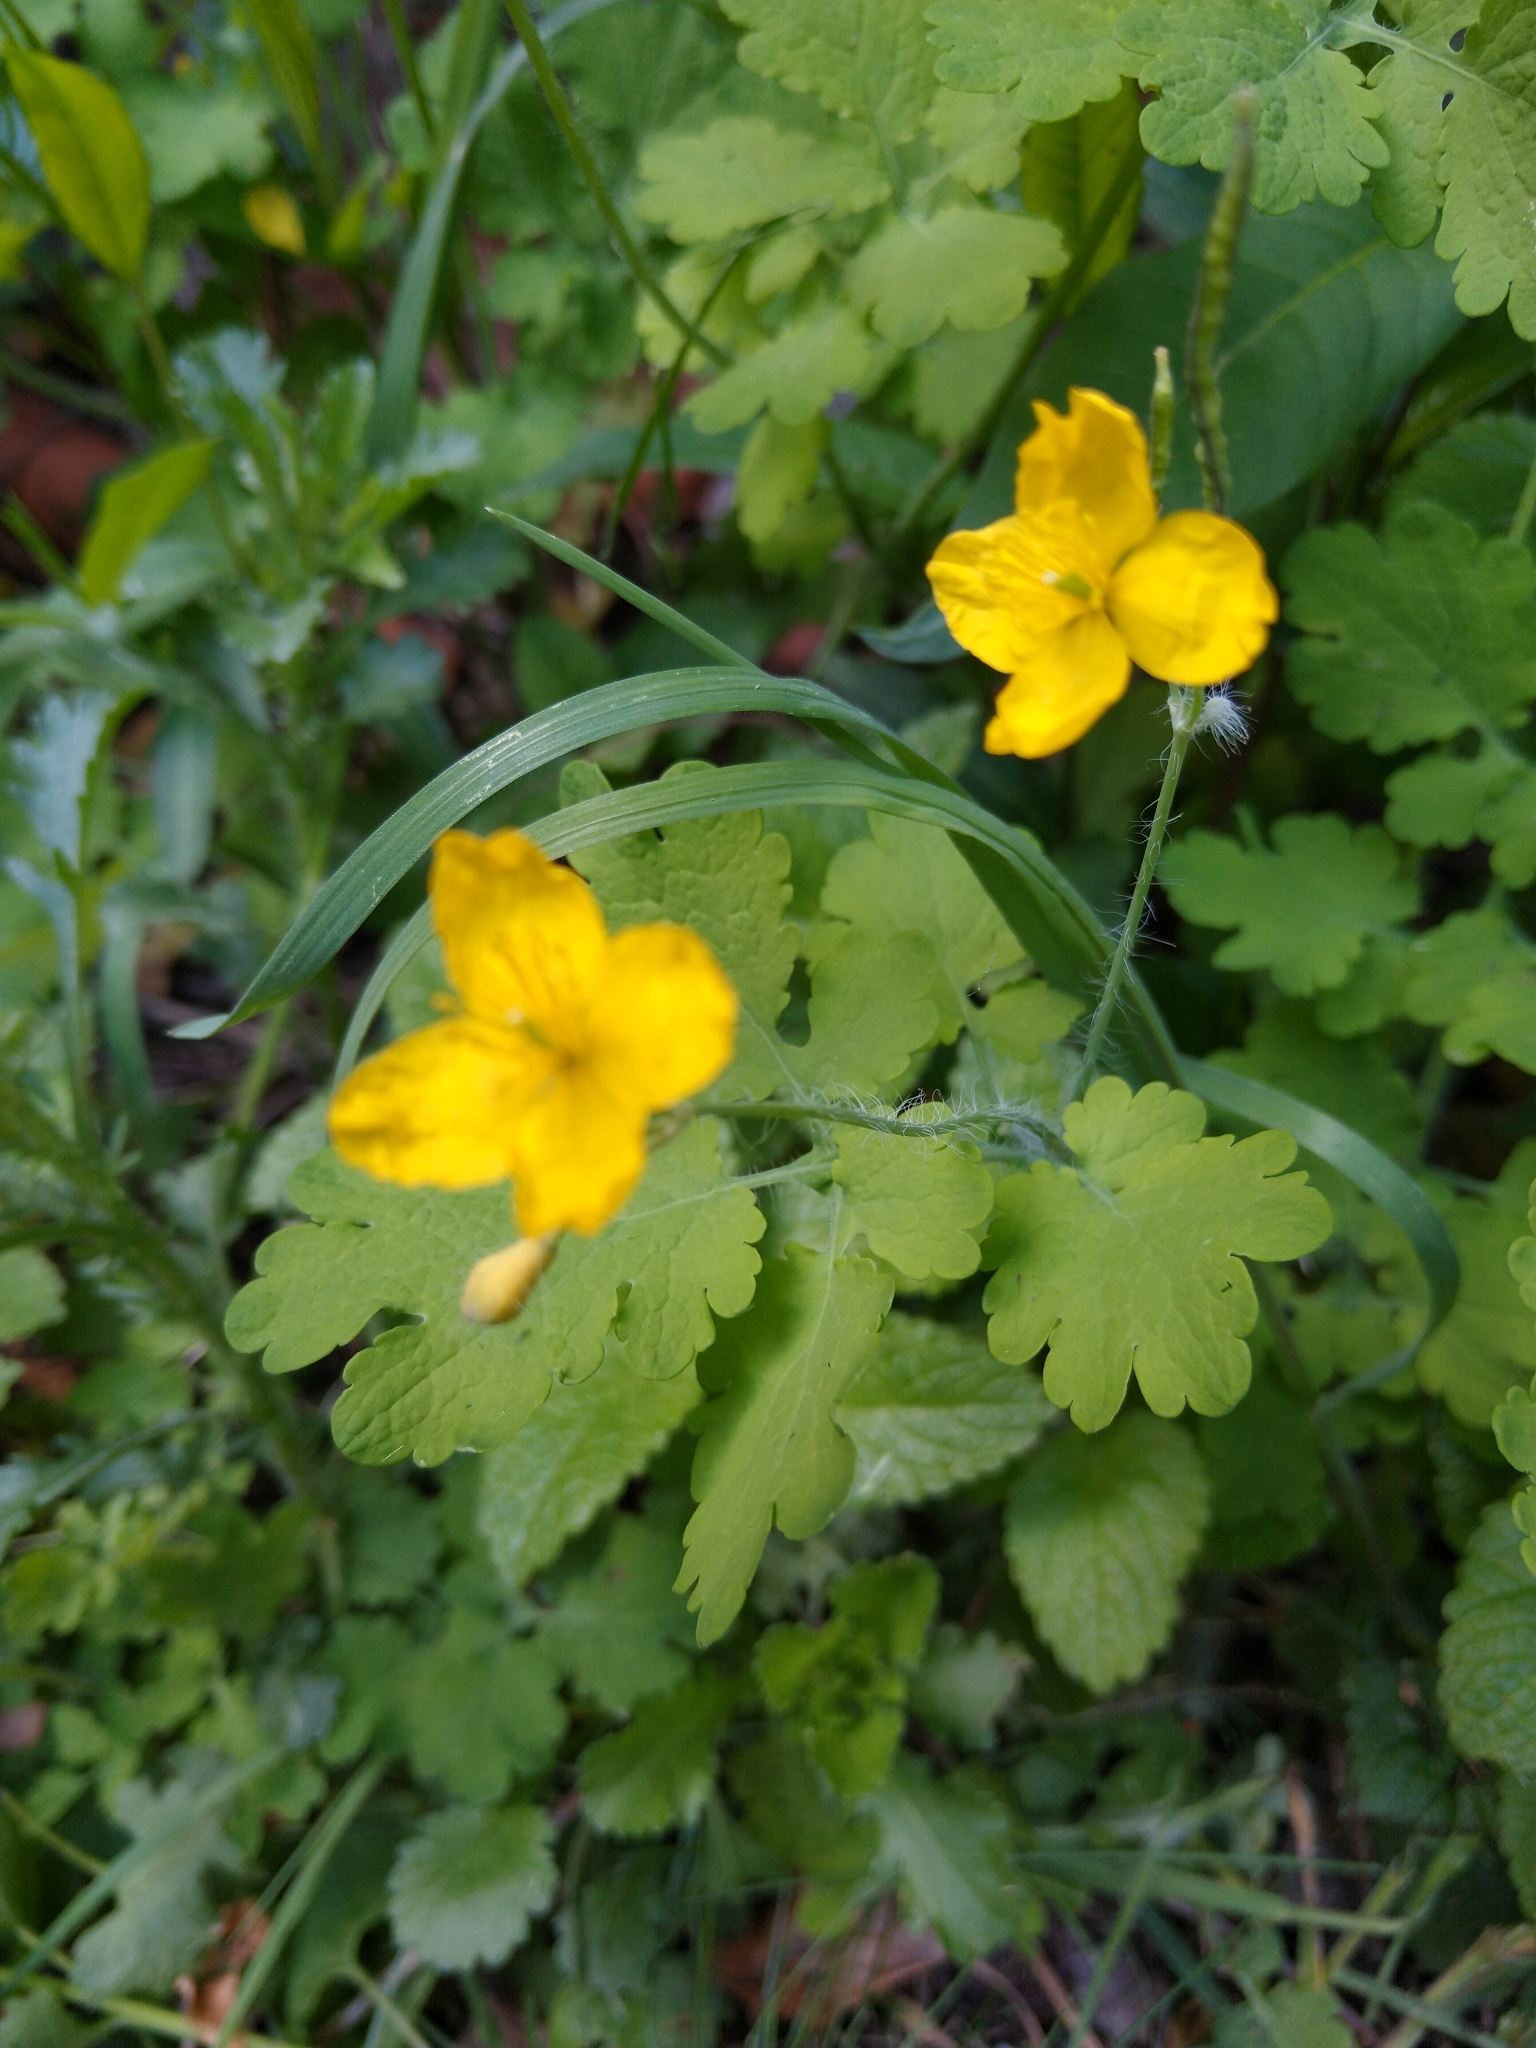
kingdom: Plantae
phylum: Tracheophyta
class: Magnoliopsida
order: Ranunculales
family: Papaveraceae
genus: Chelidonium
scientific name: Chelidonium majus
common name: Greater celandine
